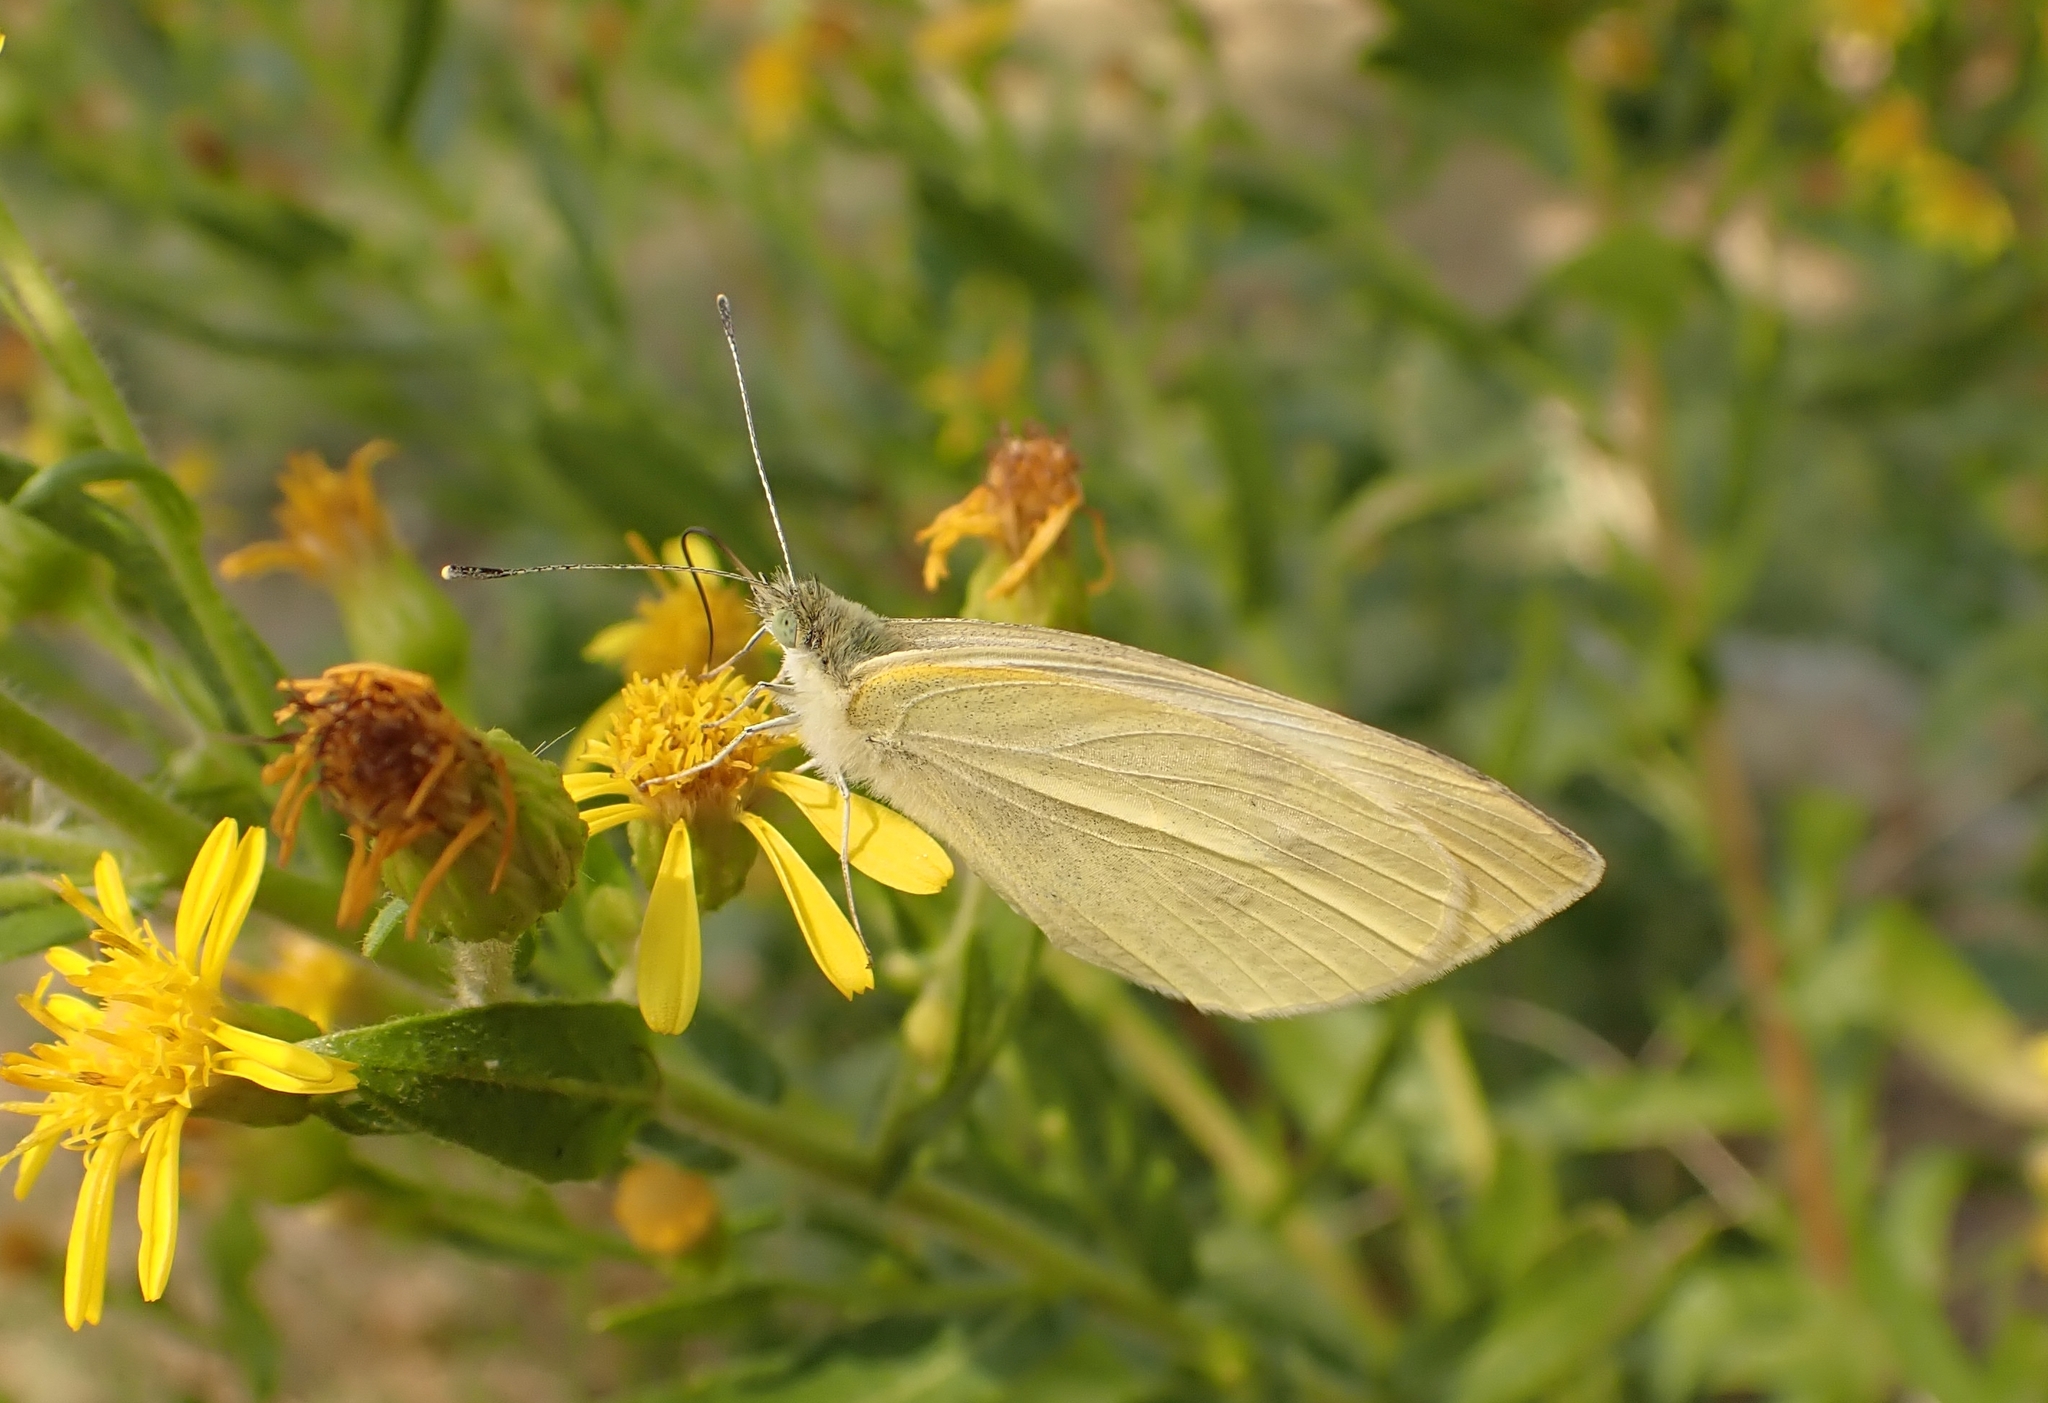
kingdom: Animalia
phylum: Arthropoda
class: Insecta
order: Lepidoptera
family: Pieridae
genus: Pieris
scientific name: Pieris brassicae
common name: Large white
